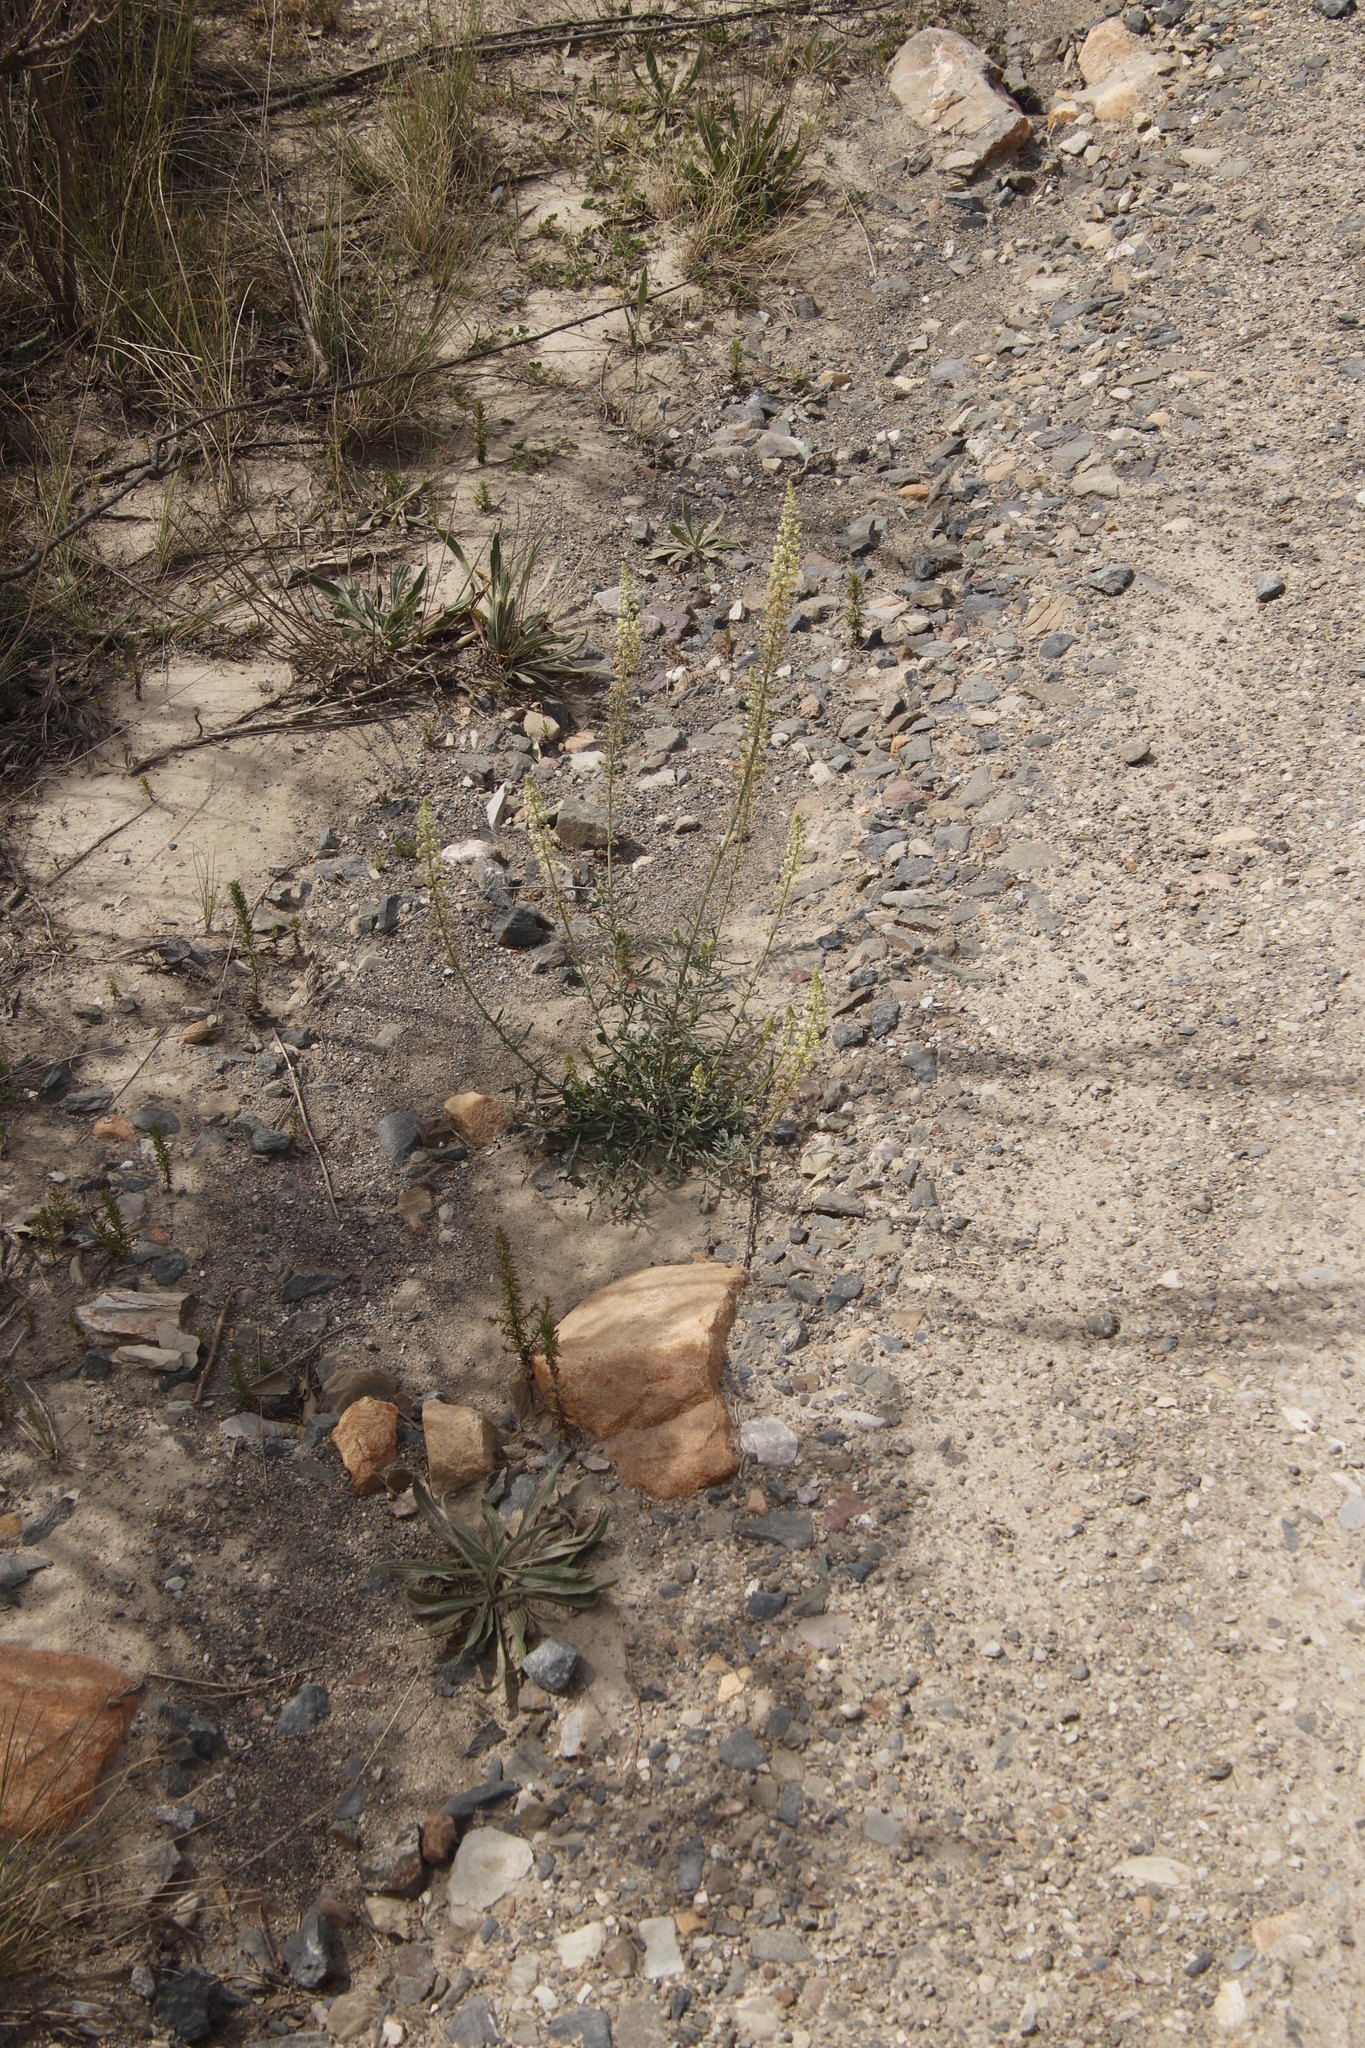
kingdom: Plantae
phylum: Tracheophyta
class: Magnoliopsida
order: Brassicales
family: Resedaceae
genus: Reseda
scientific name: Reseda lutea
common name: Wild mignonette
